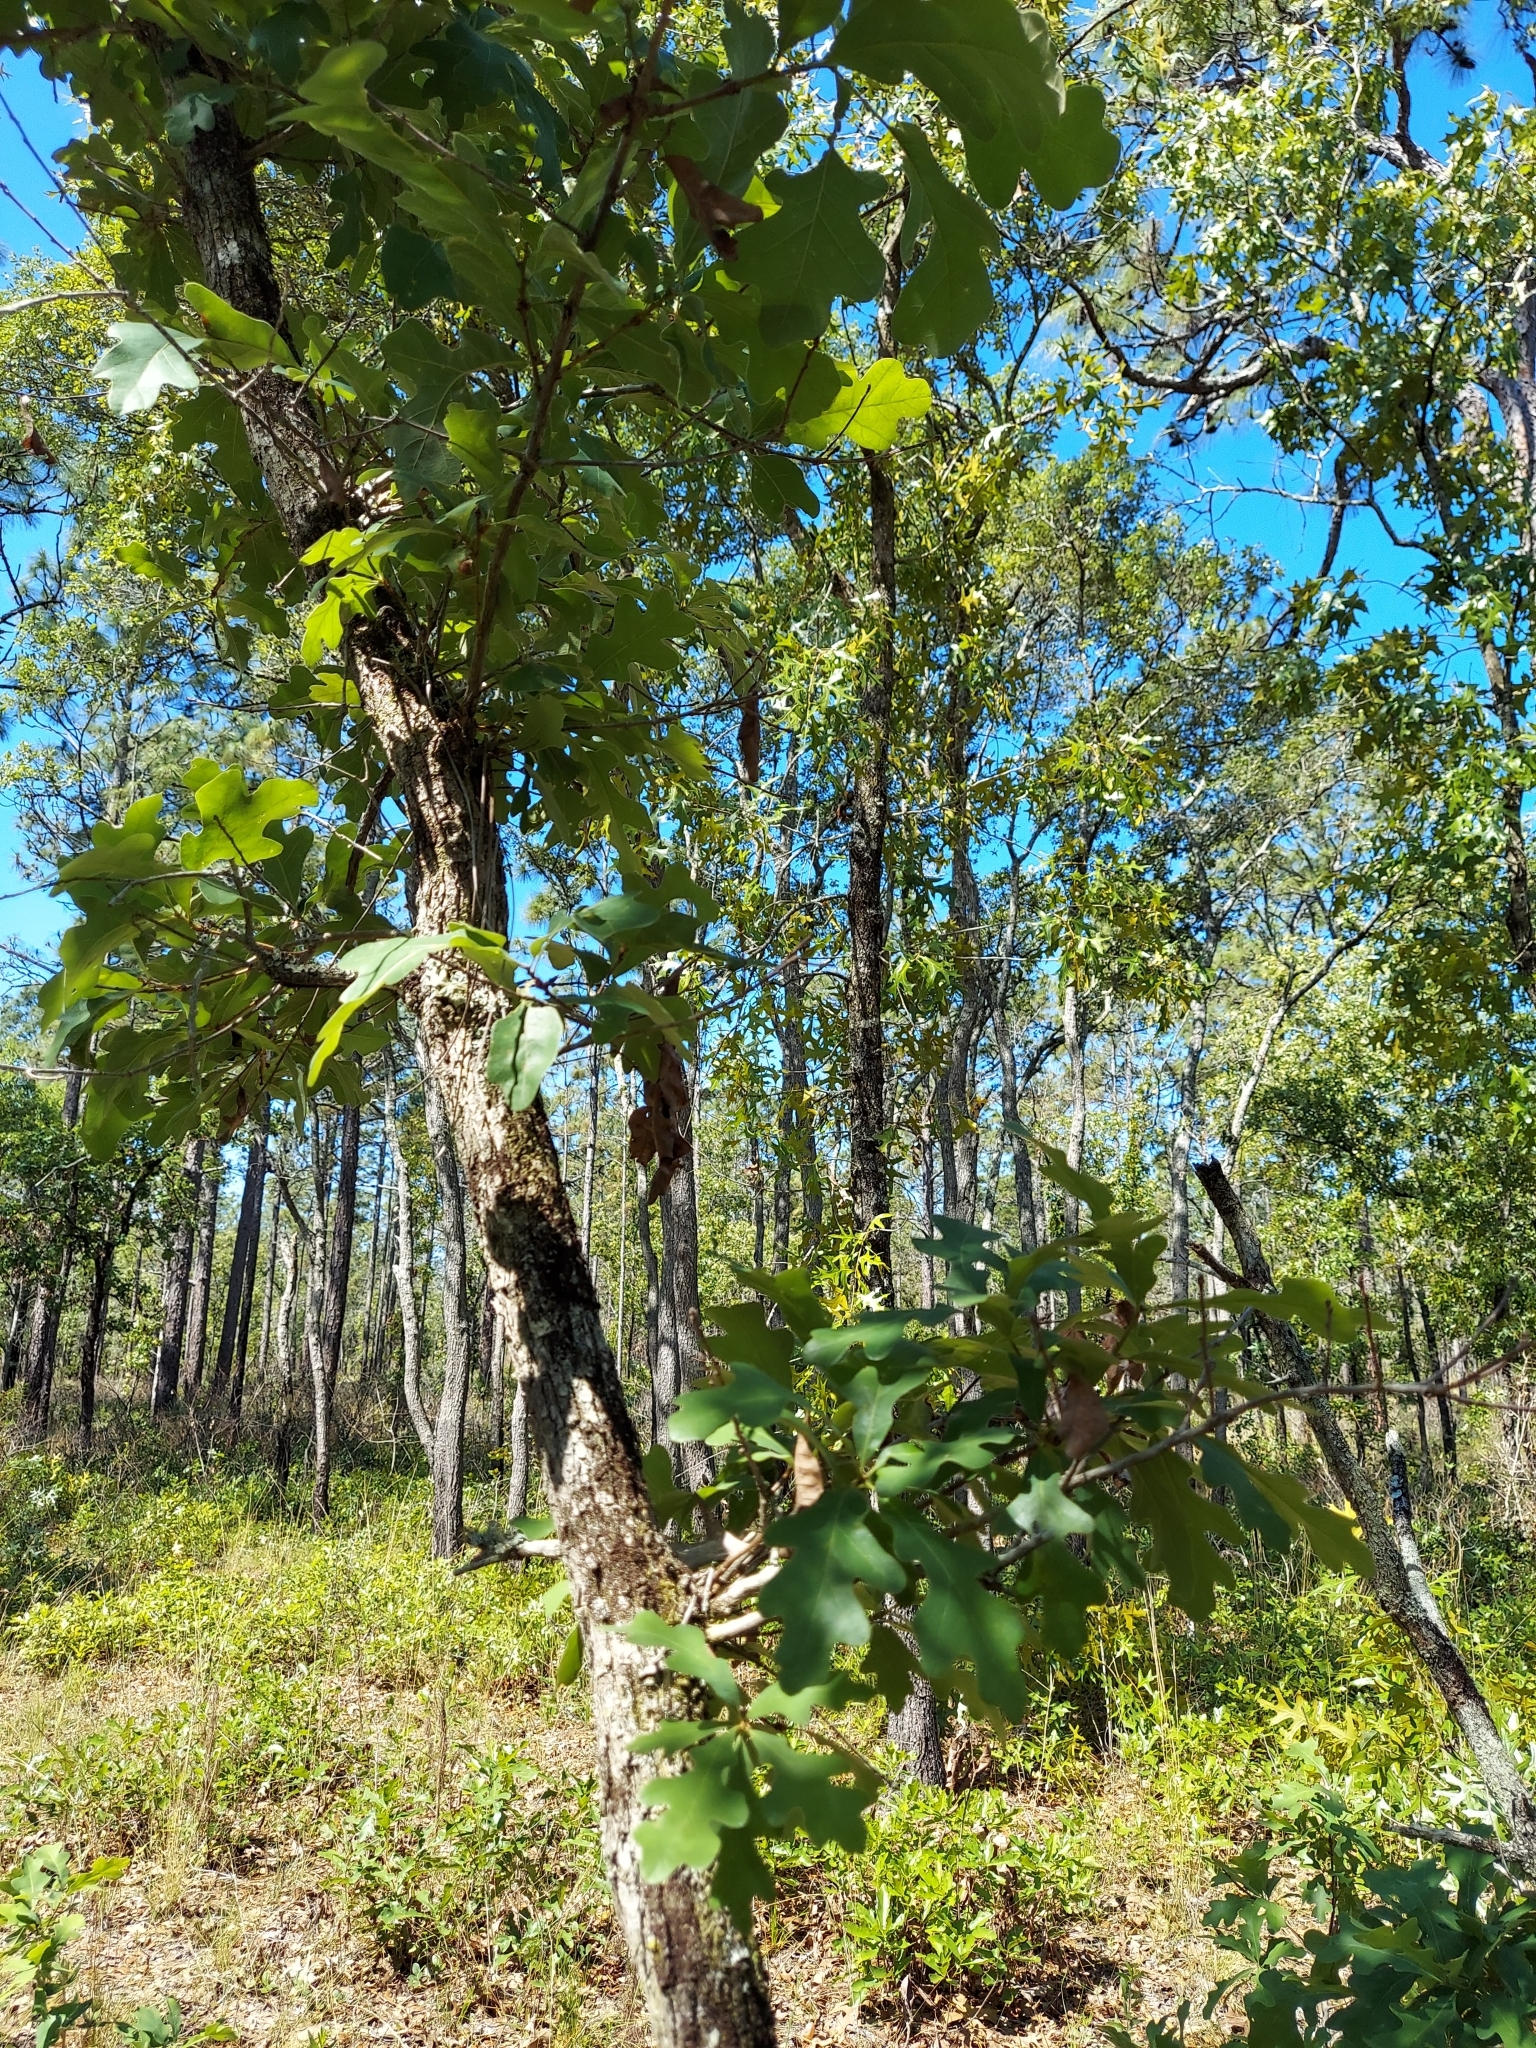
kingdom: Plantae
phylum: Tracheophyta
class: Magnoliopsida
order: Fagales
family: Fagaceae
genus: Quercus
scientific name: Quercus margaretiae
